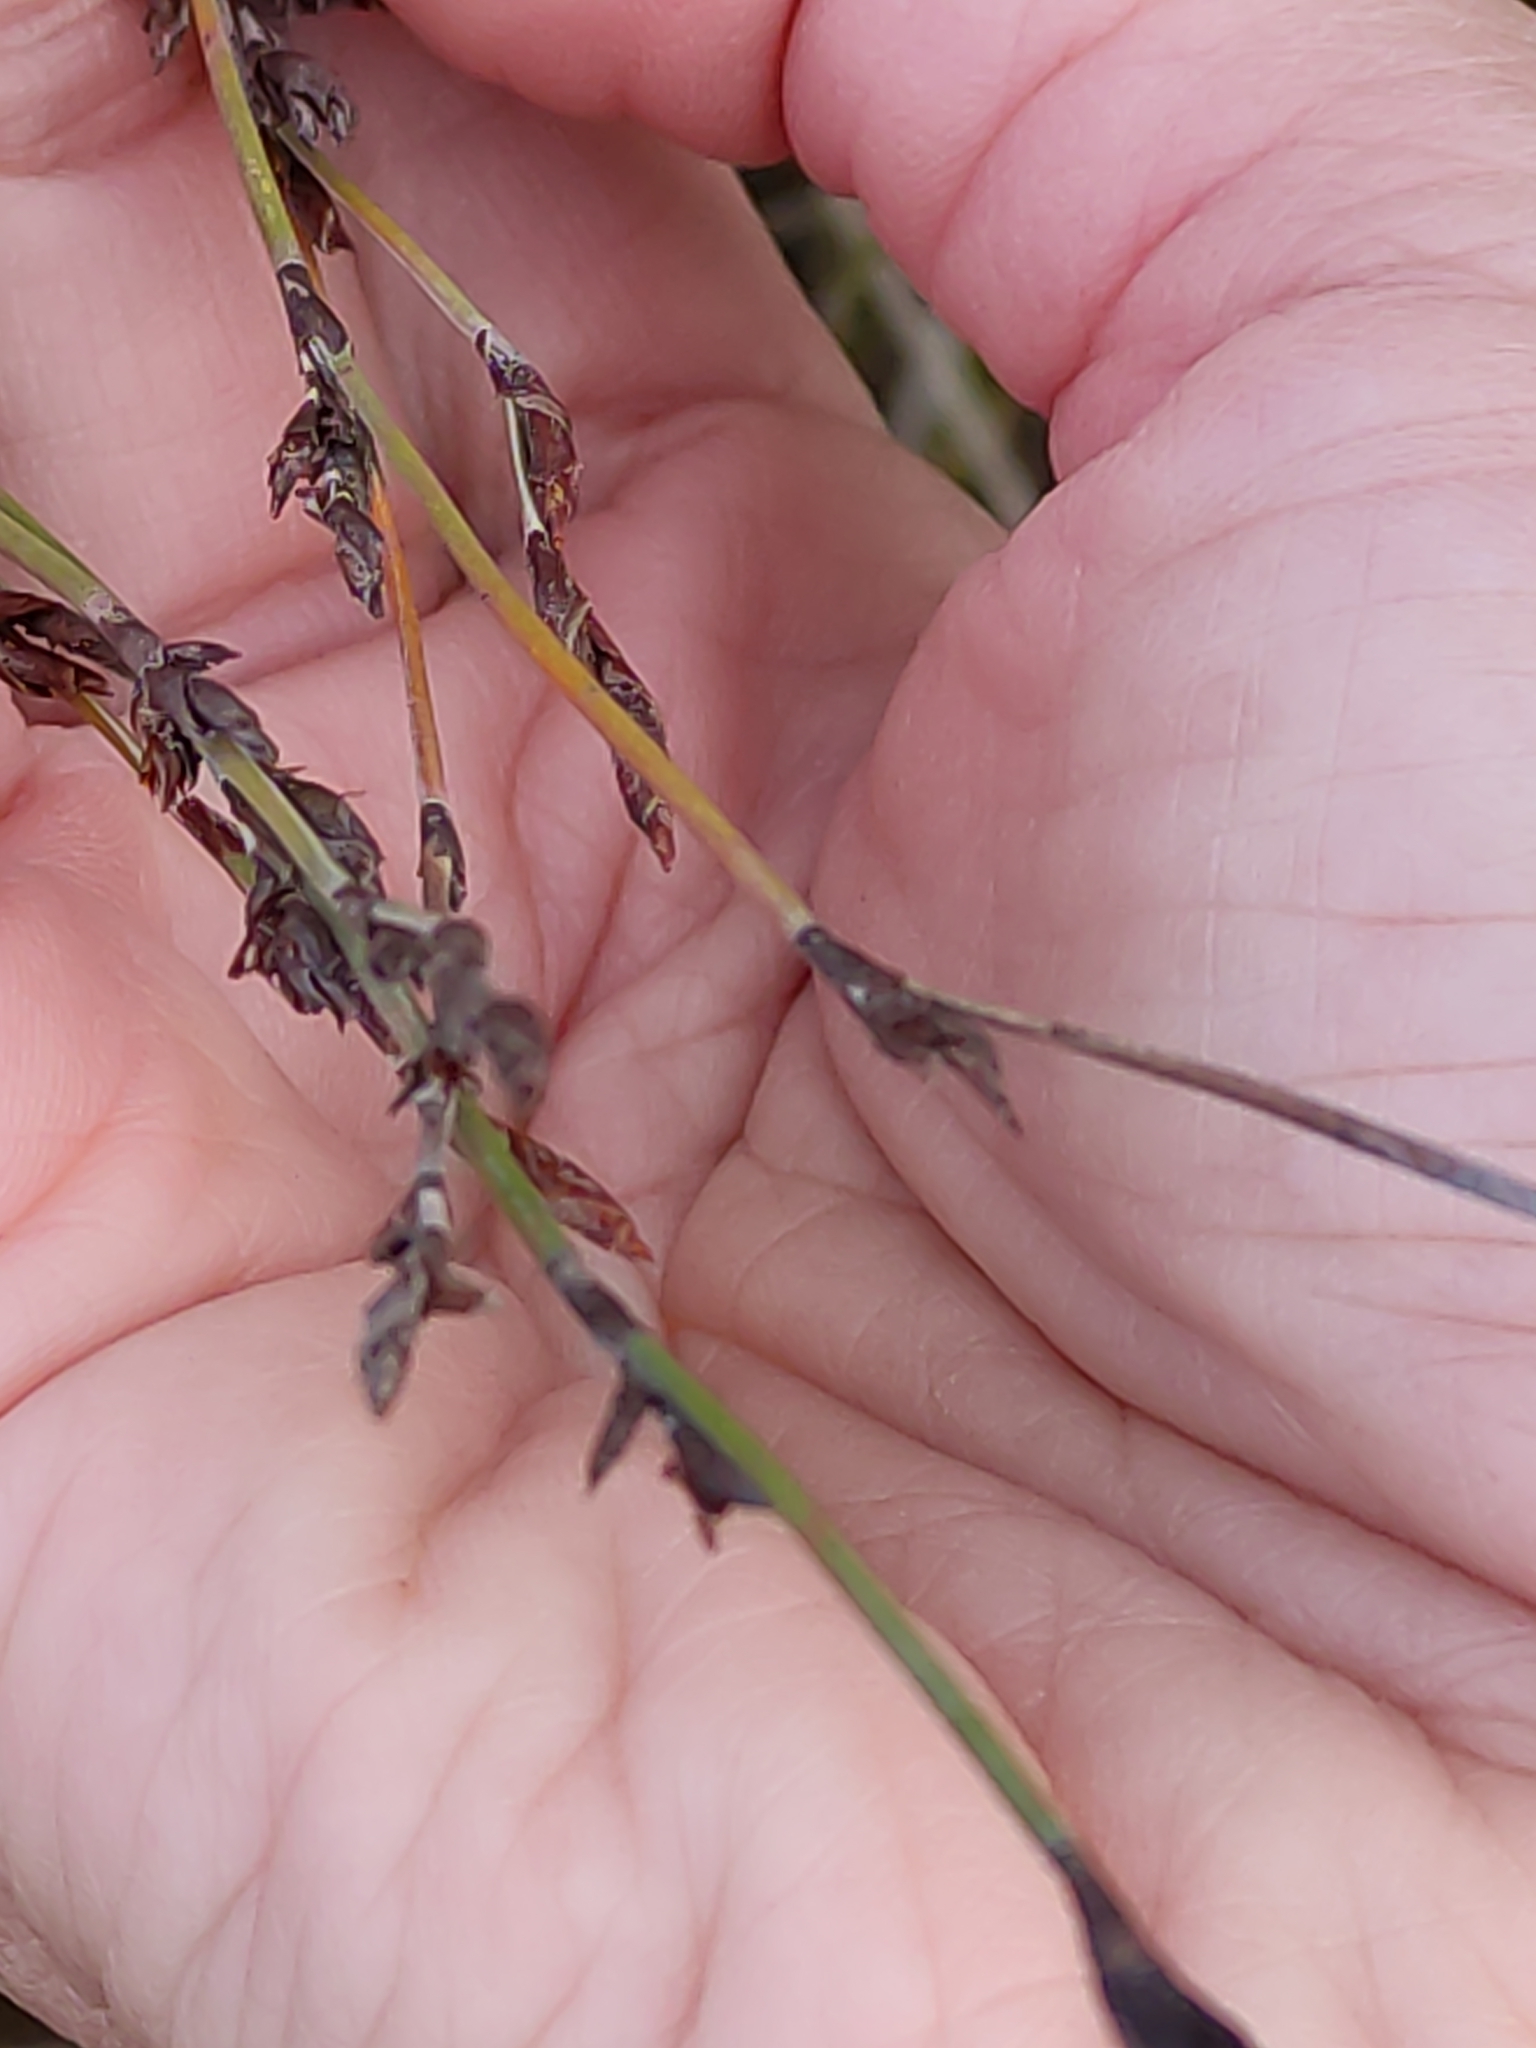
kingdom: Plantae
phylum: Tracheophyta
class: Liliopsida
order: Poales
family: Restionaceae
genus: Apodasmia
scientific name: Apodasmia similis
